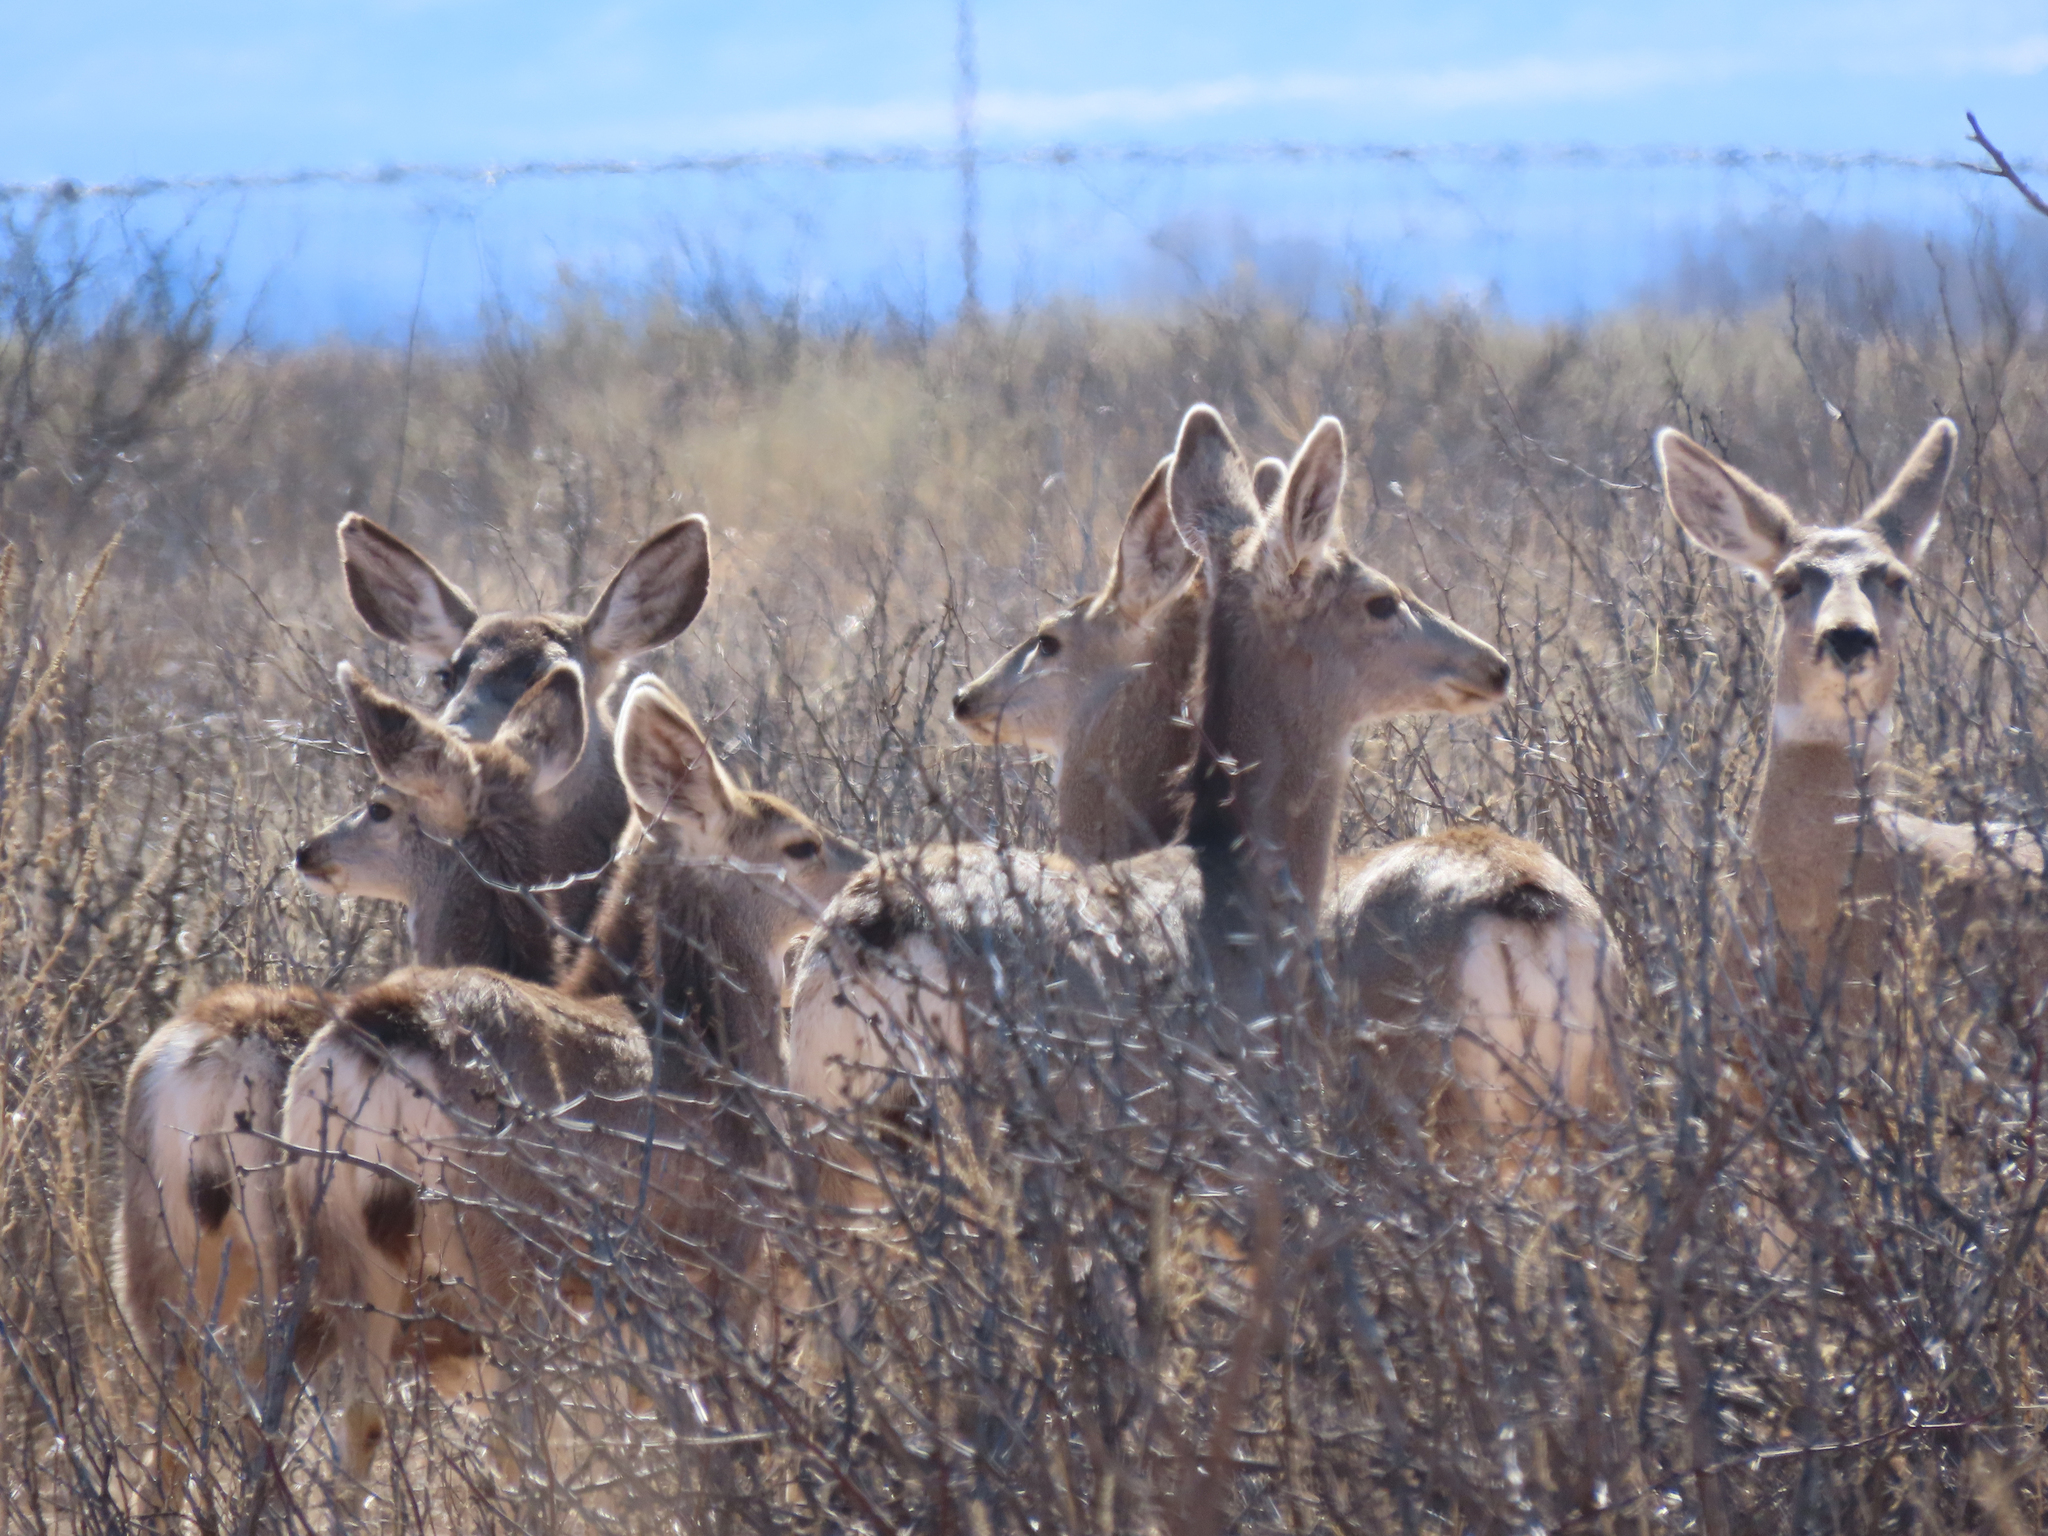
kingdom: Animalia
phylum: Chordata
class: Mammalia
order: Artiodactyla
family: Cervidae
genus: Odocoileus
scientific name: Odocoileus hemionus
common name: Mule deer
